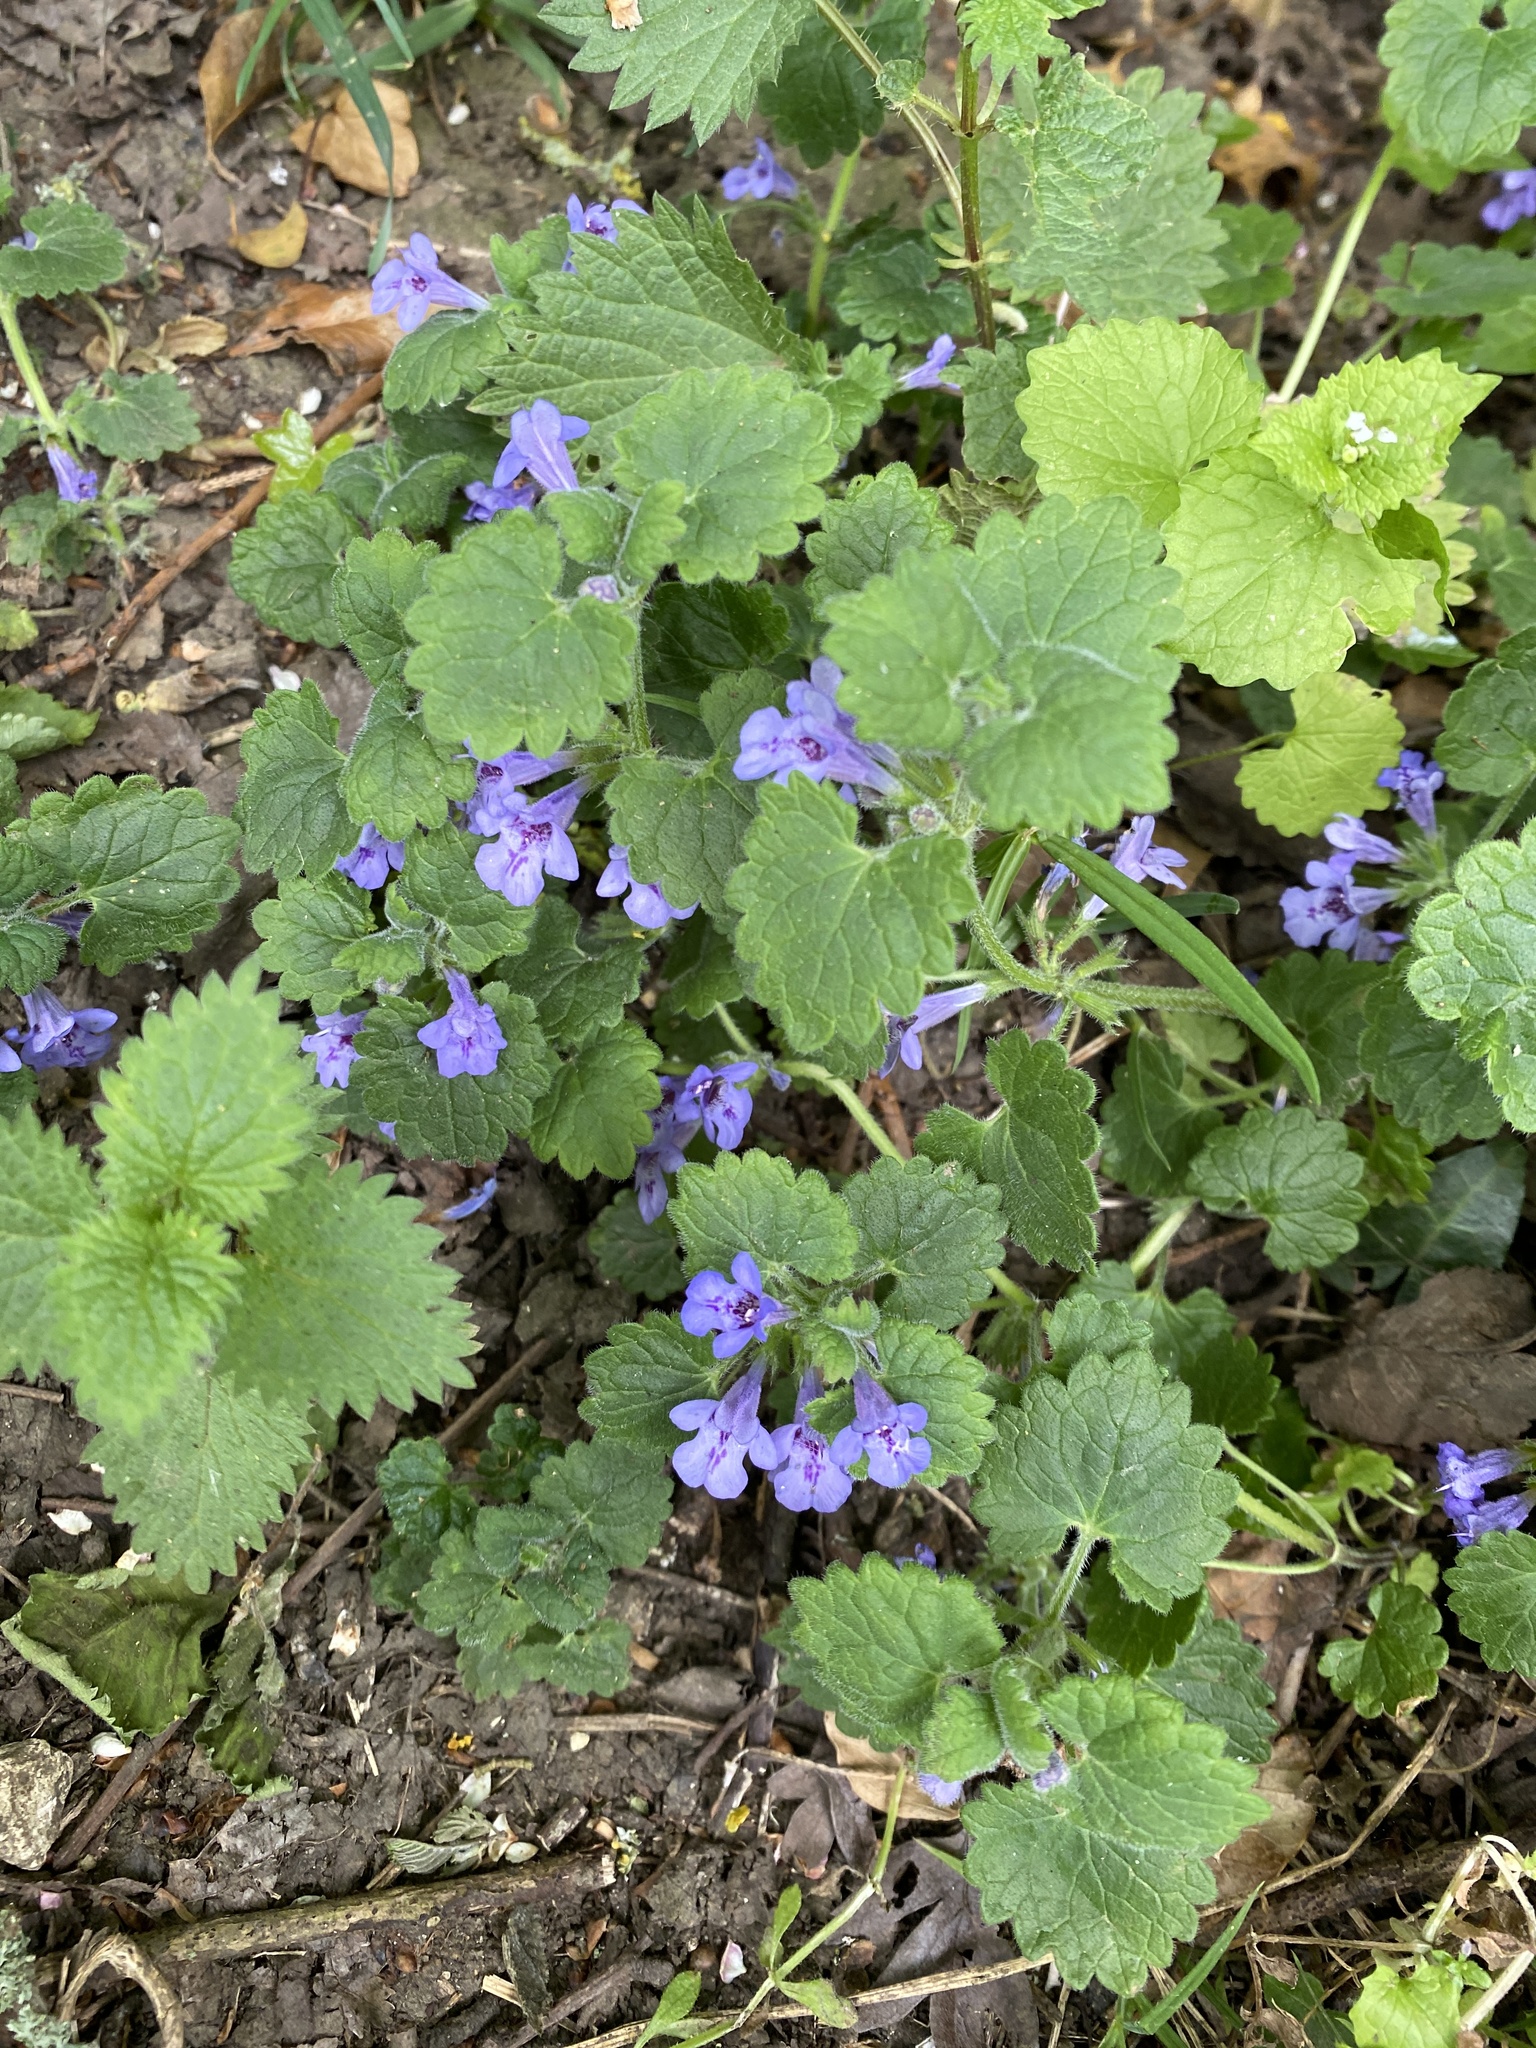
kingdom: Plantae
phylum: Tracheophyta
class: Magnoliopsida
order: Lamiales
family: Lamiaceae
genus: Glechoma
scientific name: Glechoma hederacea
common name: Ground ivy
